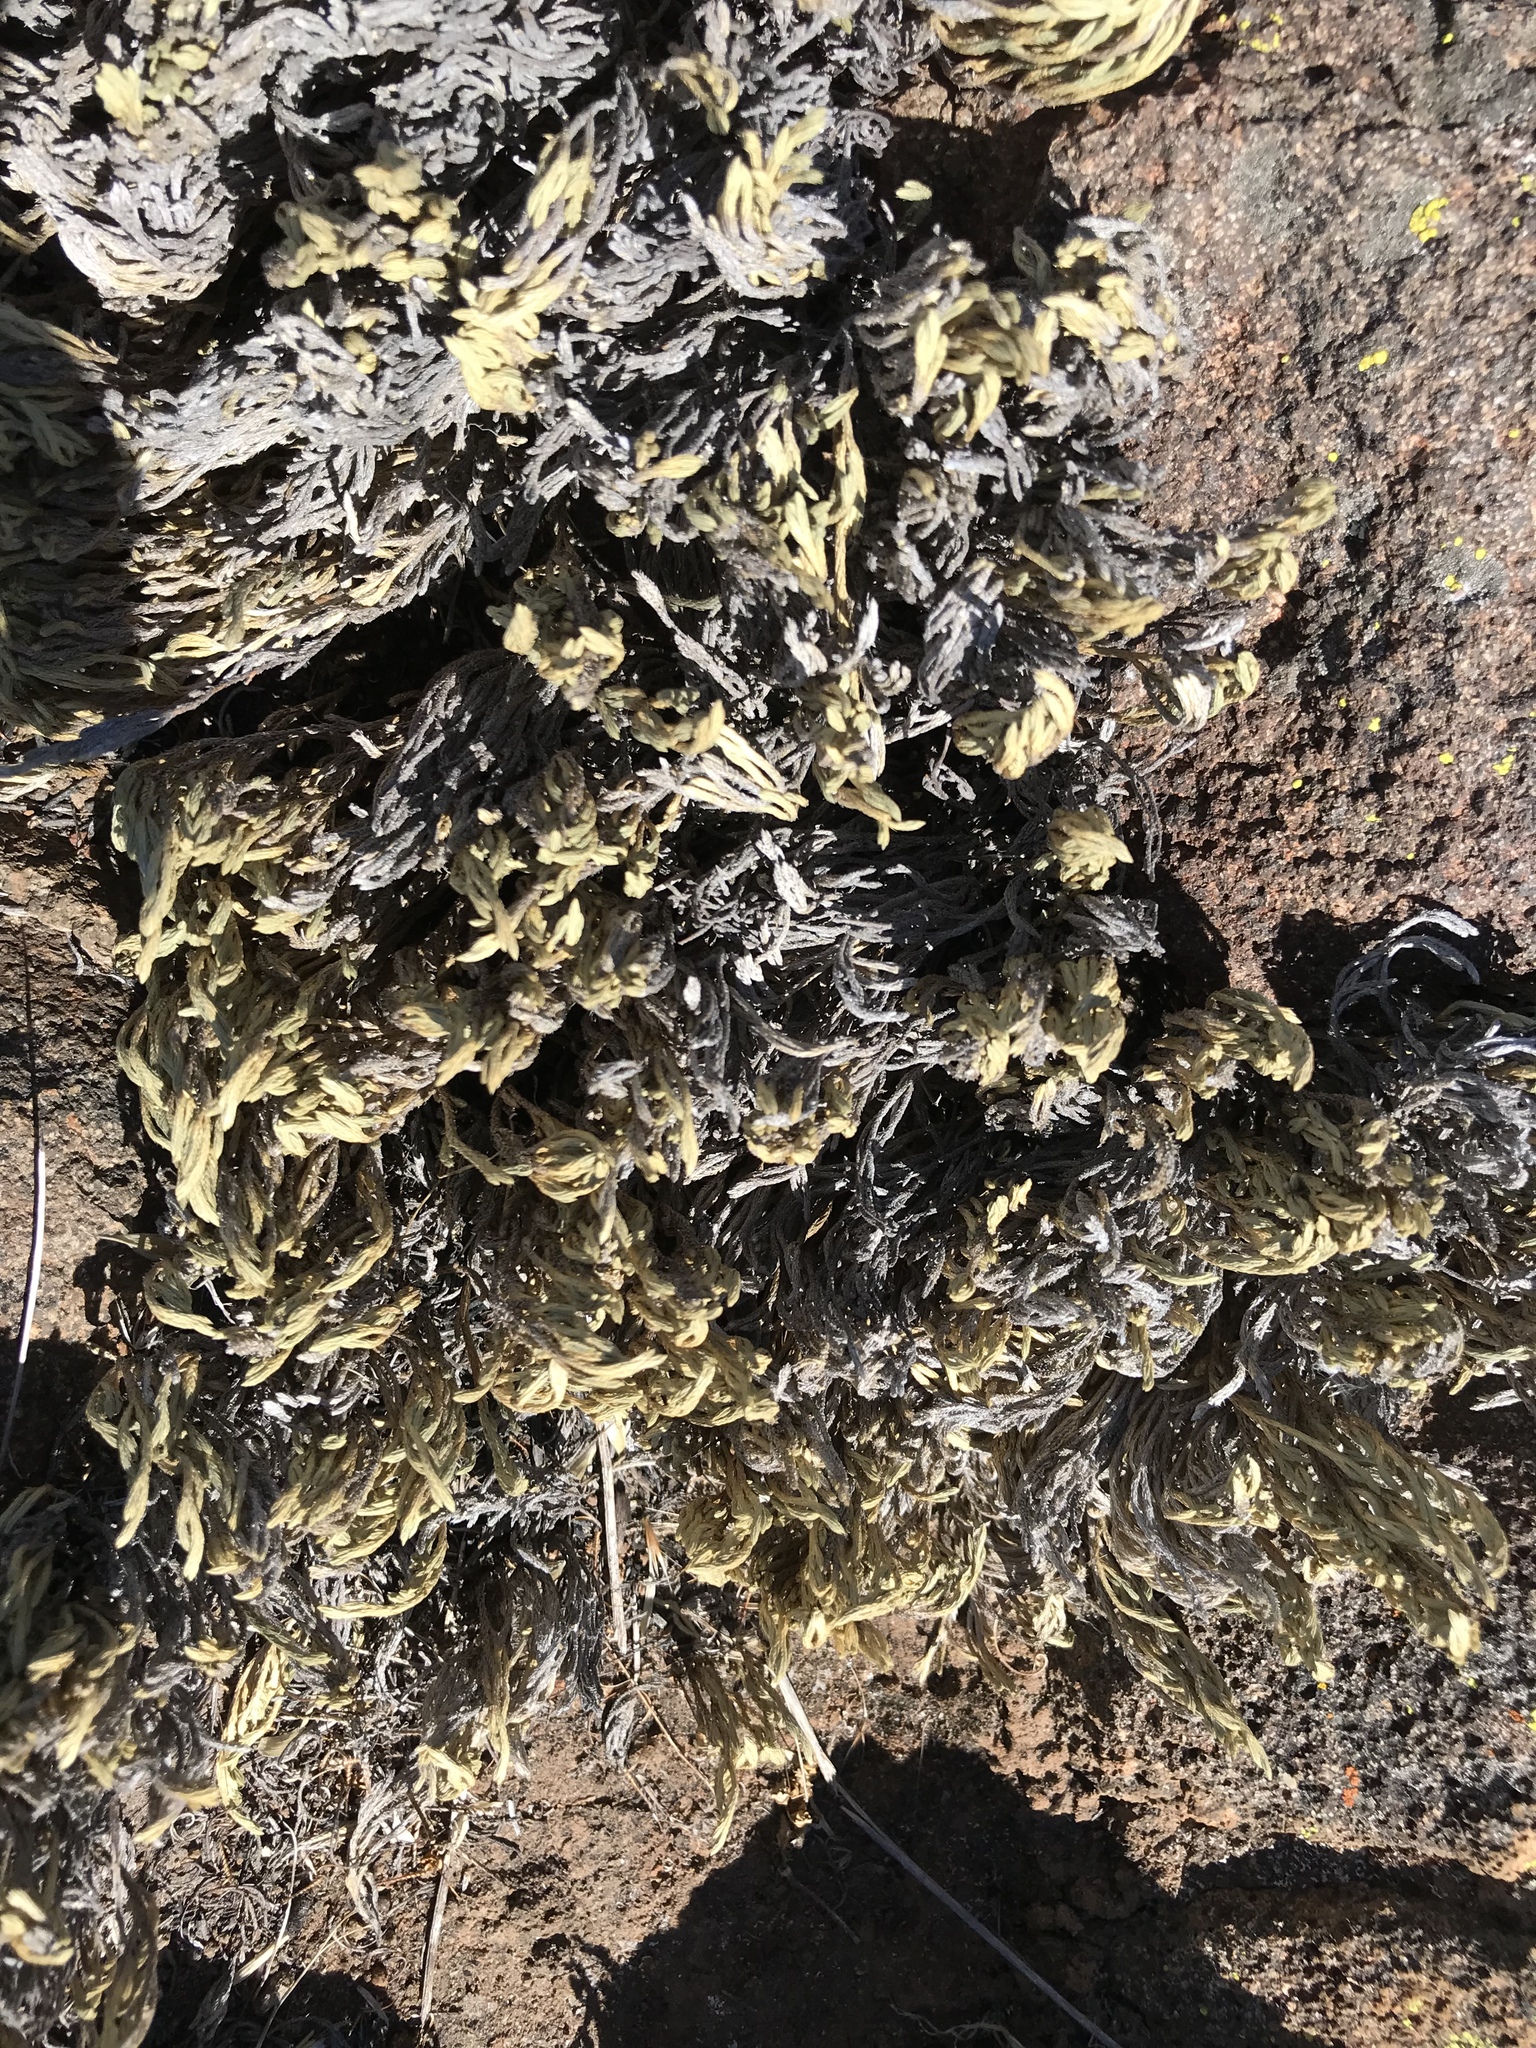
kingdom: Plantae
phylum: Tracheophyta
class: Lycopodiopsida
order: Selaginellales
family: Selaginellaceae
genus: Selaginella
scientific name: Selaginella bigelovii
